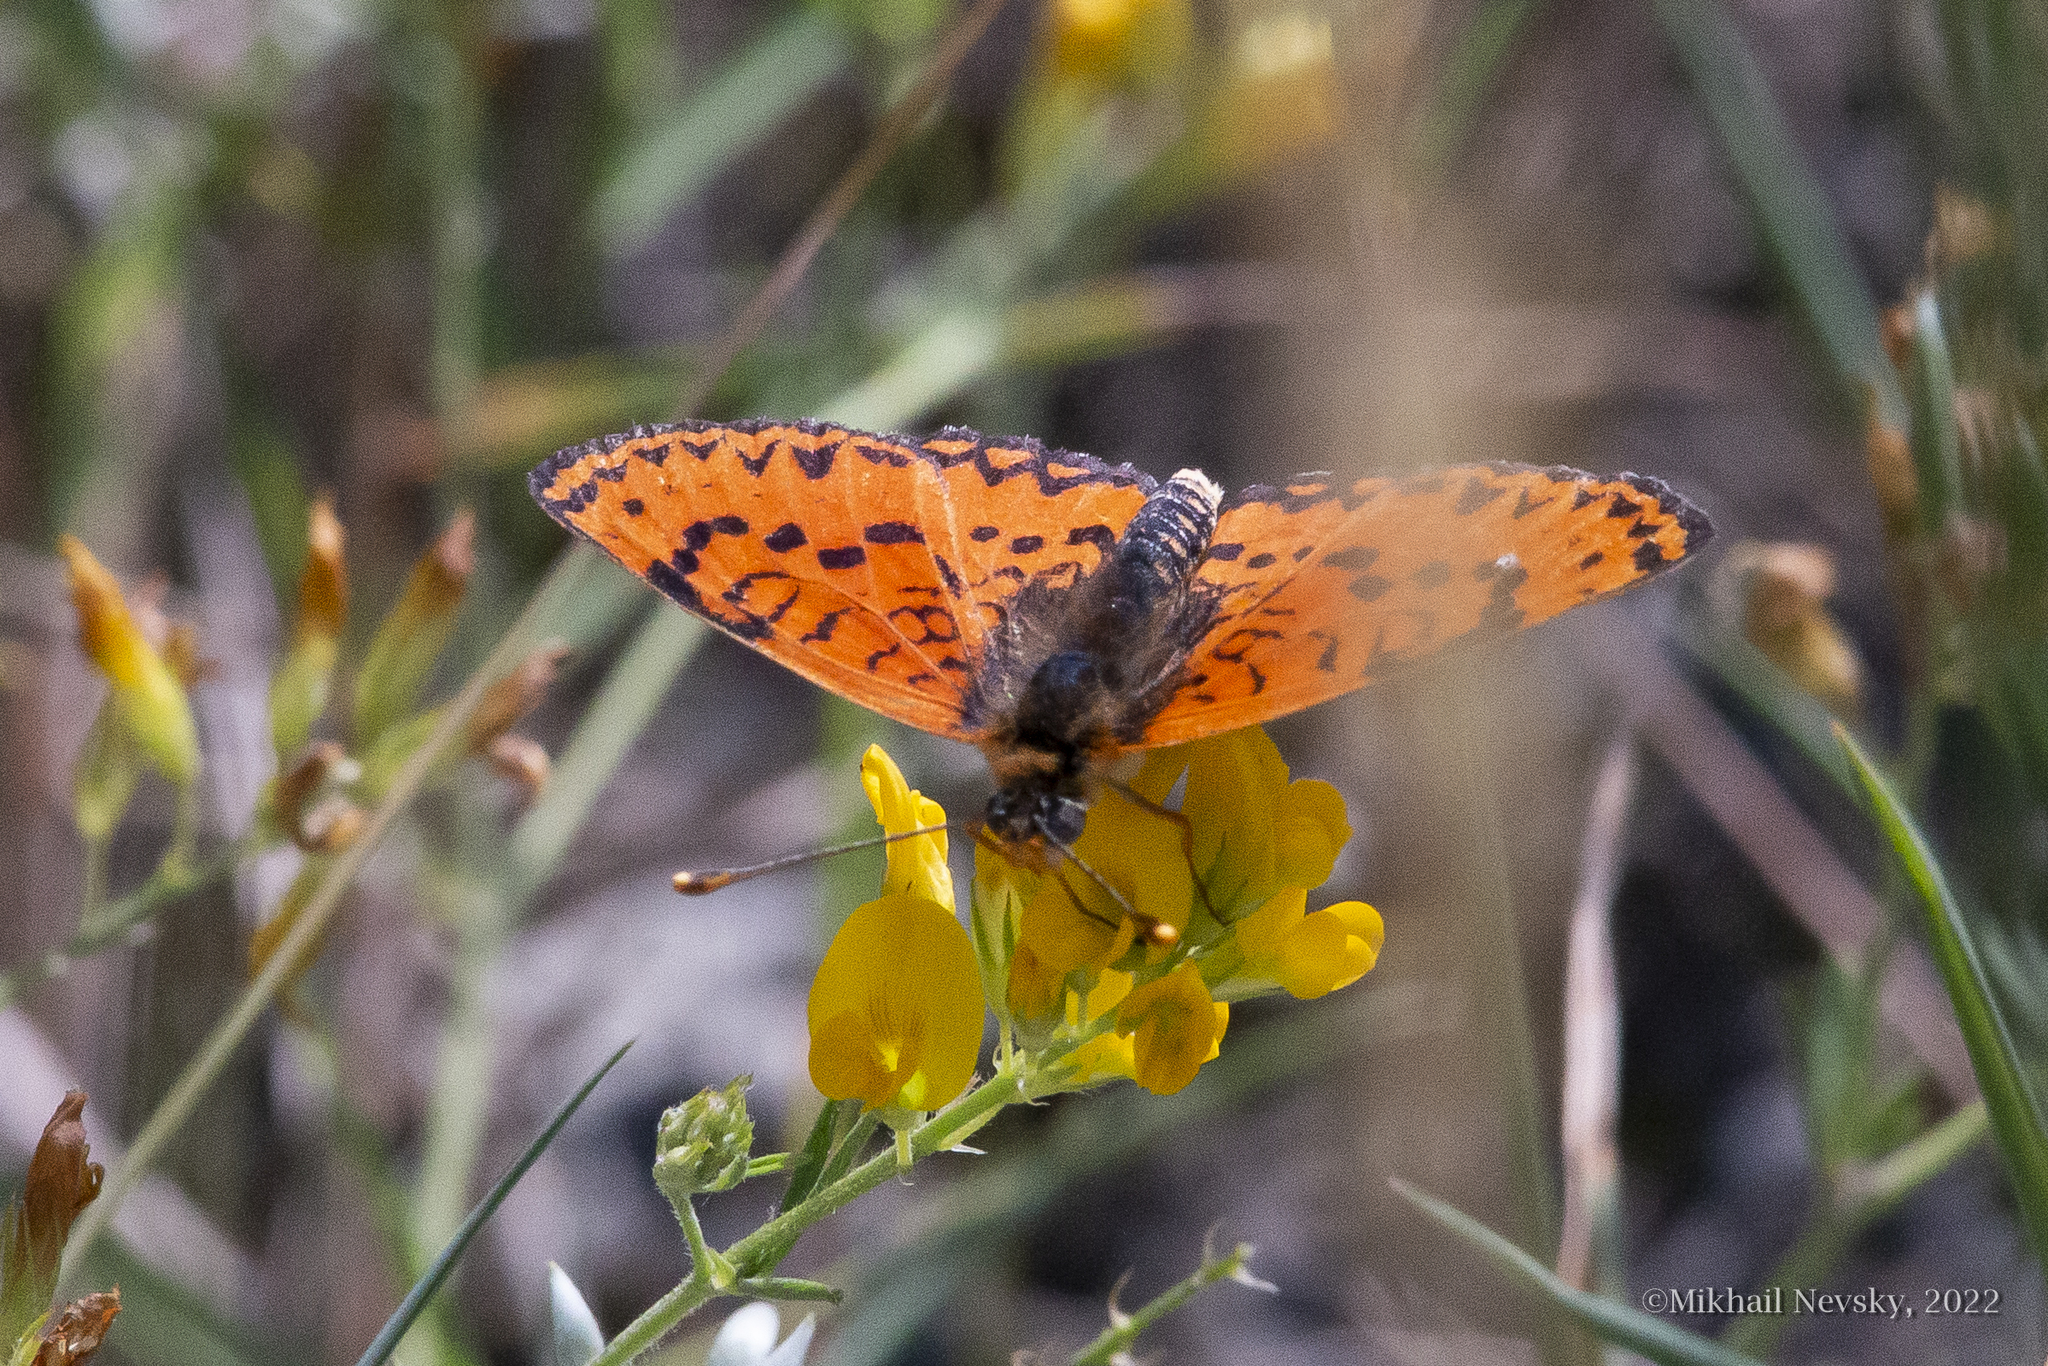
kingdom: Animalia
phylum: Arthropoda
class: Insecta
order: Lepidoptera
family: Nymphalidae
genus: Melitaea
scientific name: Melitaea trivia
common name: Lesser spotted fritillary
